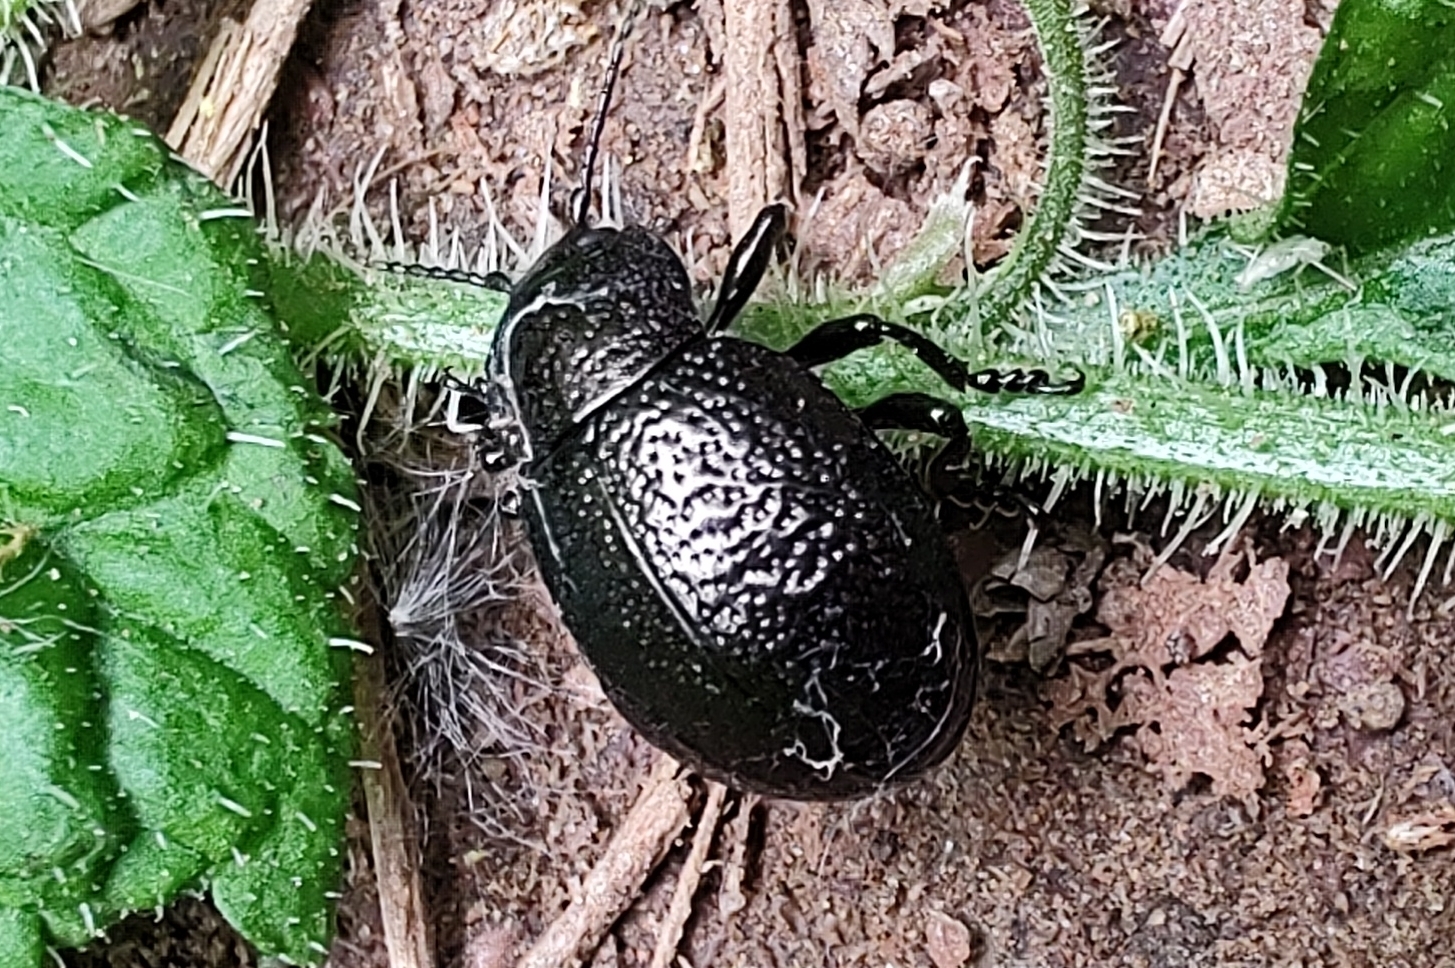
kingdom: Animalia
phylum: Arthropoda
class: Insecta
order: Coleoptera
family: Chrysomelidae
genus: Timarcha
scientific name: Timarcha intricata
